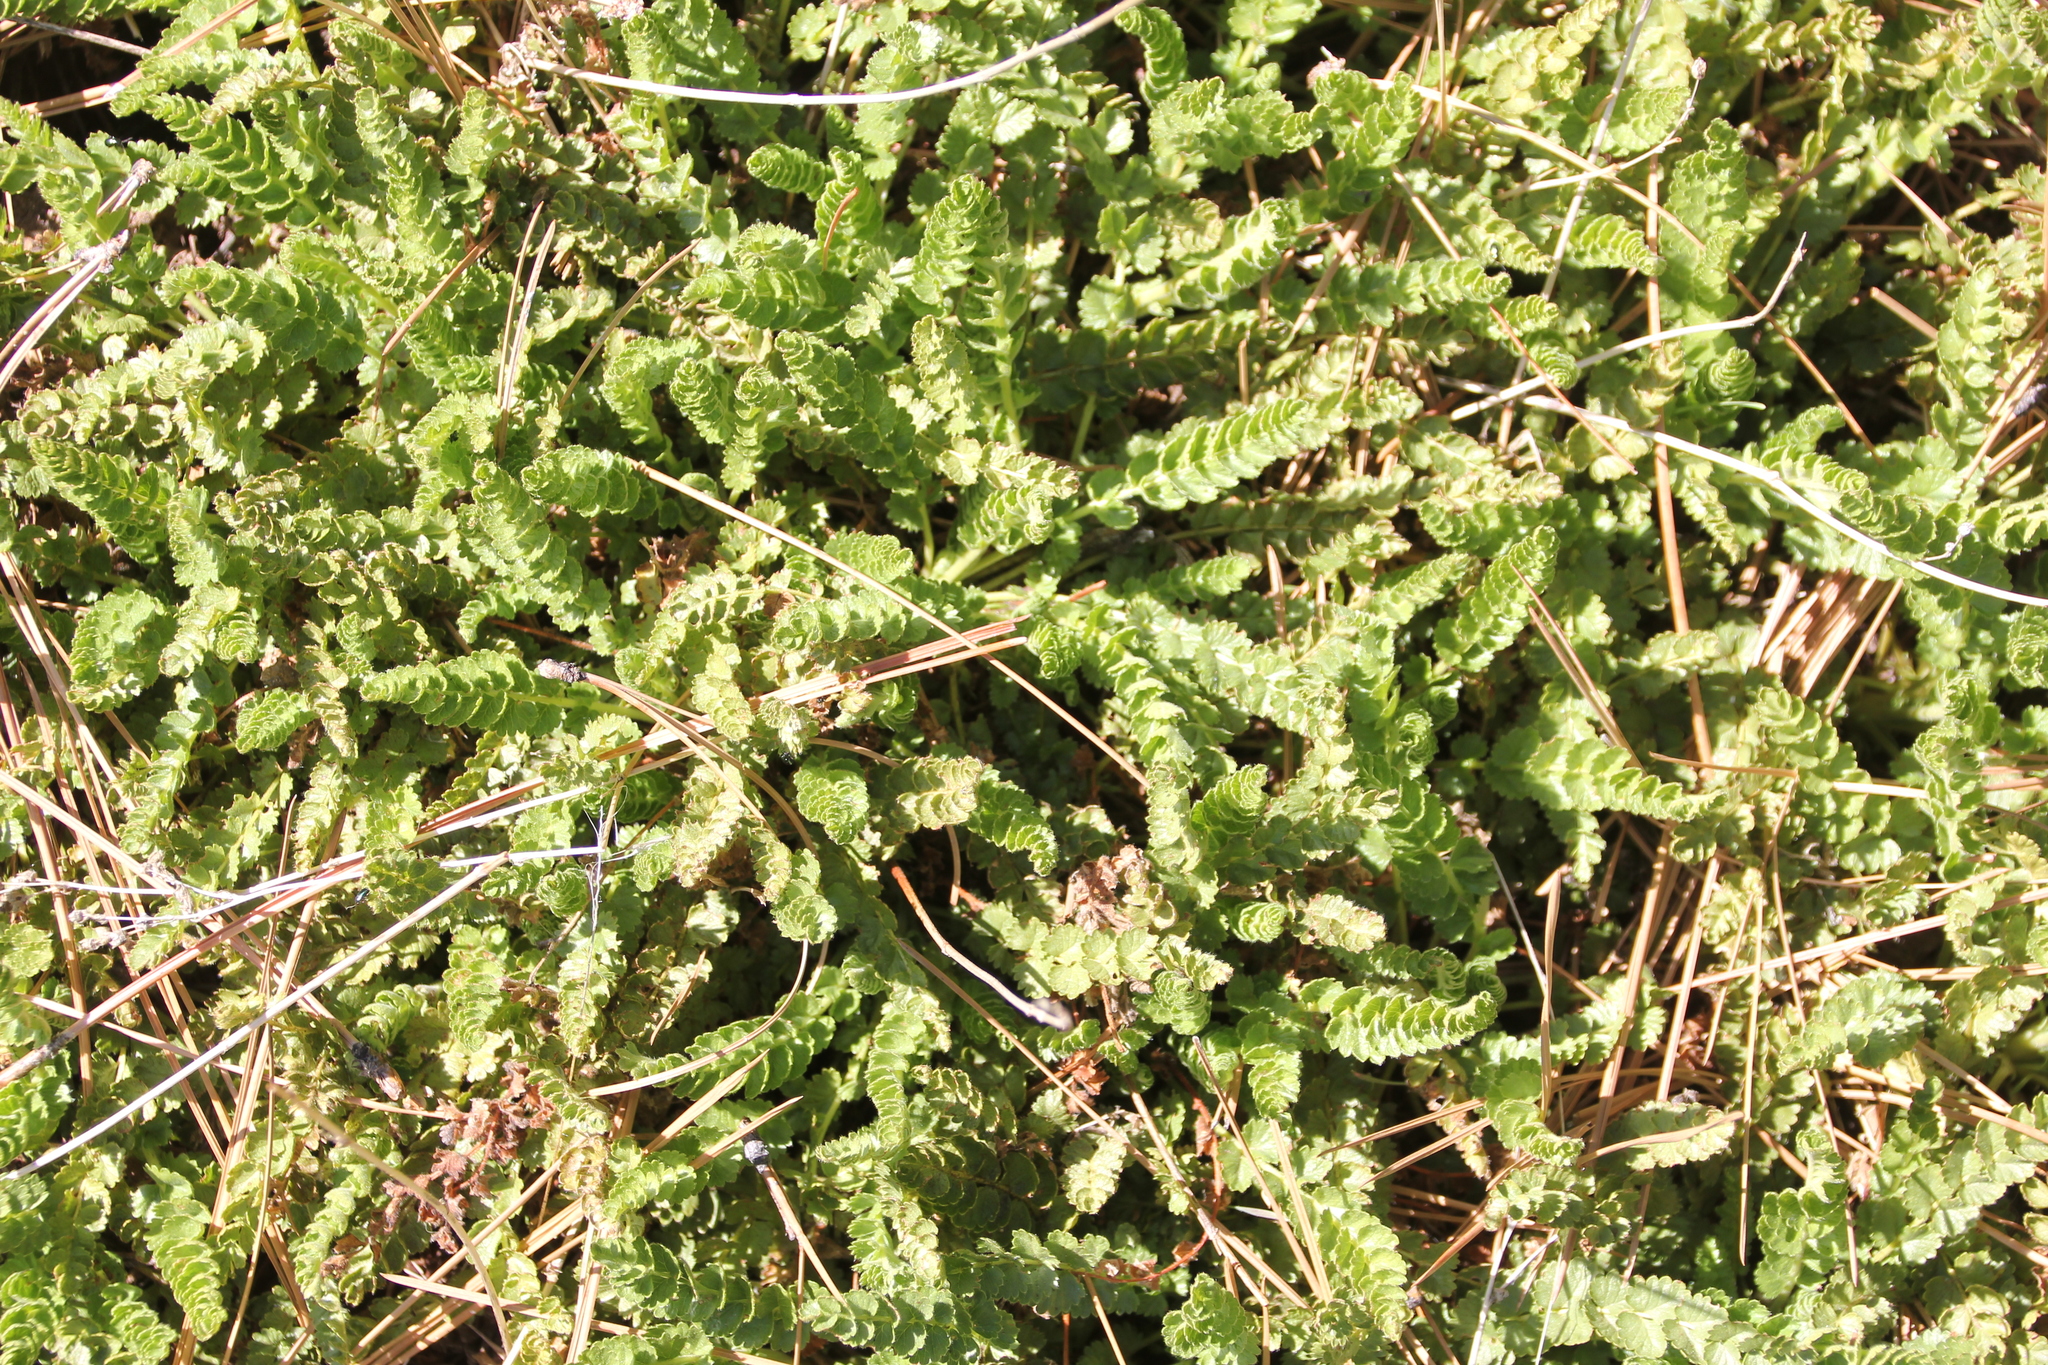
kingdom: Plantae
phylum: Tracheophyta
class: Magnoliopsida
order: Rosales
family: Rosaceae
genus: Potentilla
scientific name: Potentilla clevelandii
